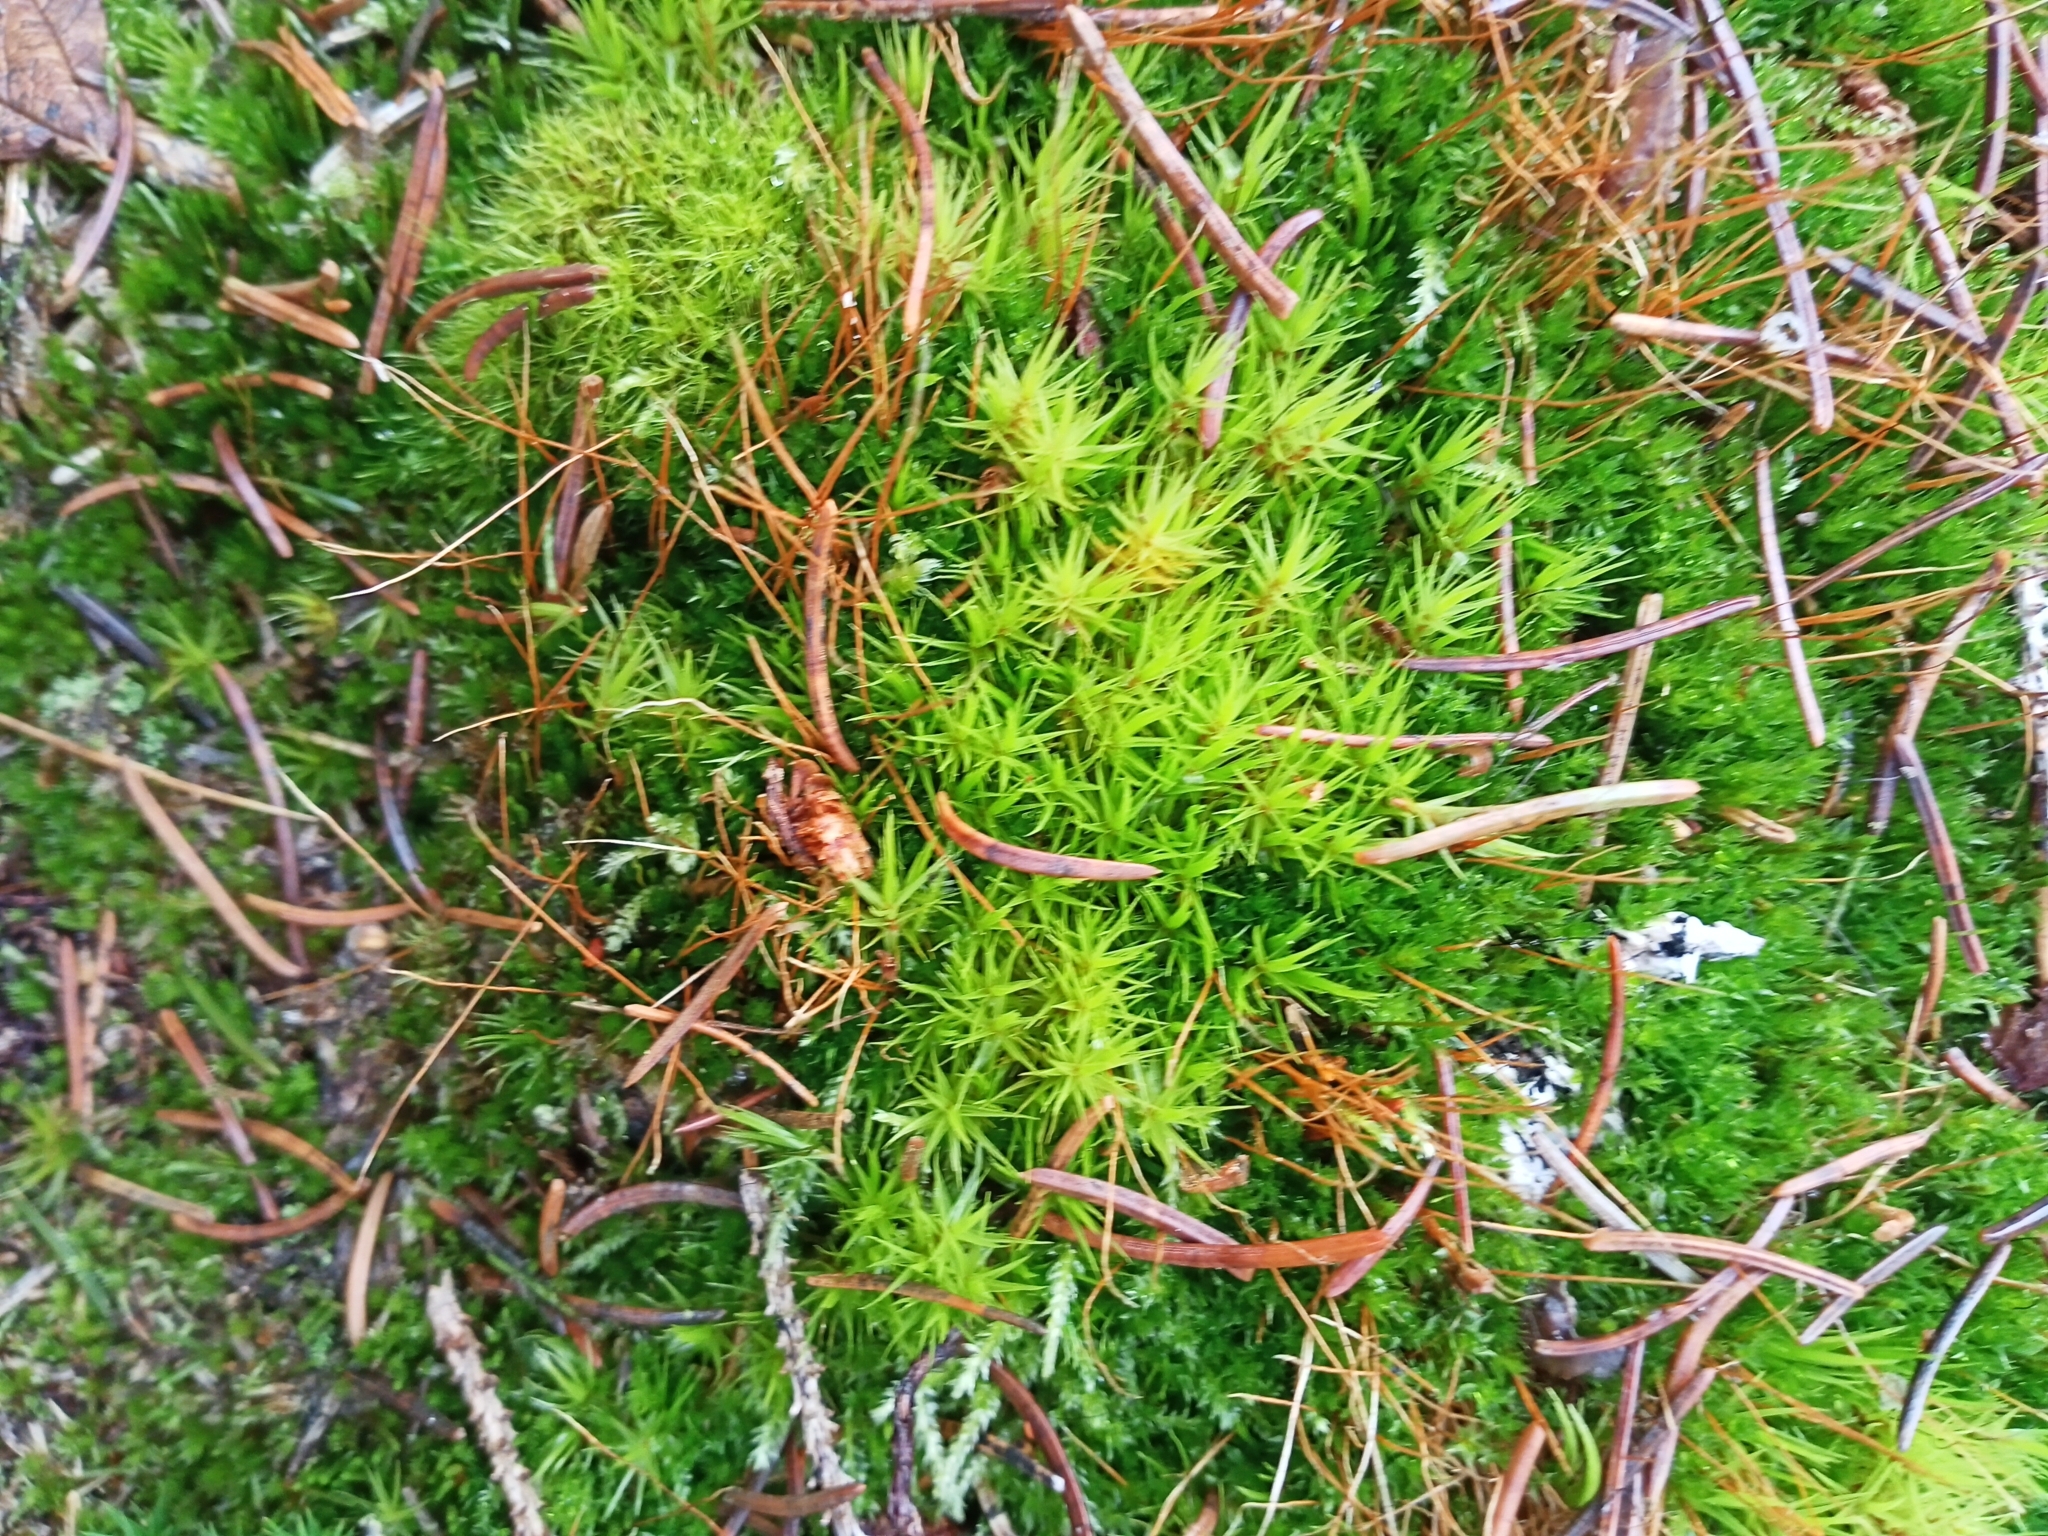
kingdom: Plantae
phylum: Bryophyta
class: Bryopsida
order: Dicranales
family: Dicranaceae
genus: Dicranum
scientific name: Dicranum scoparium
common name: Broom fork-moss
